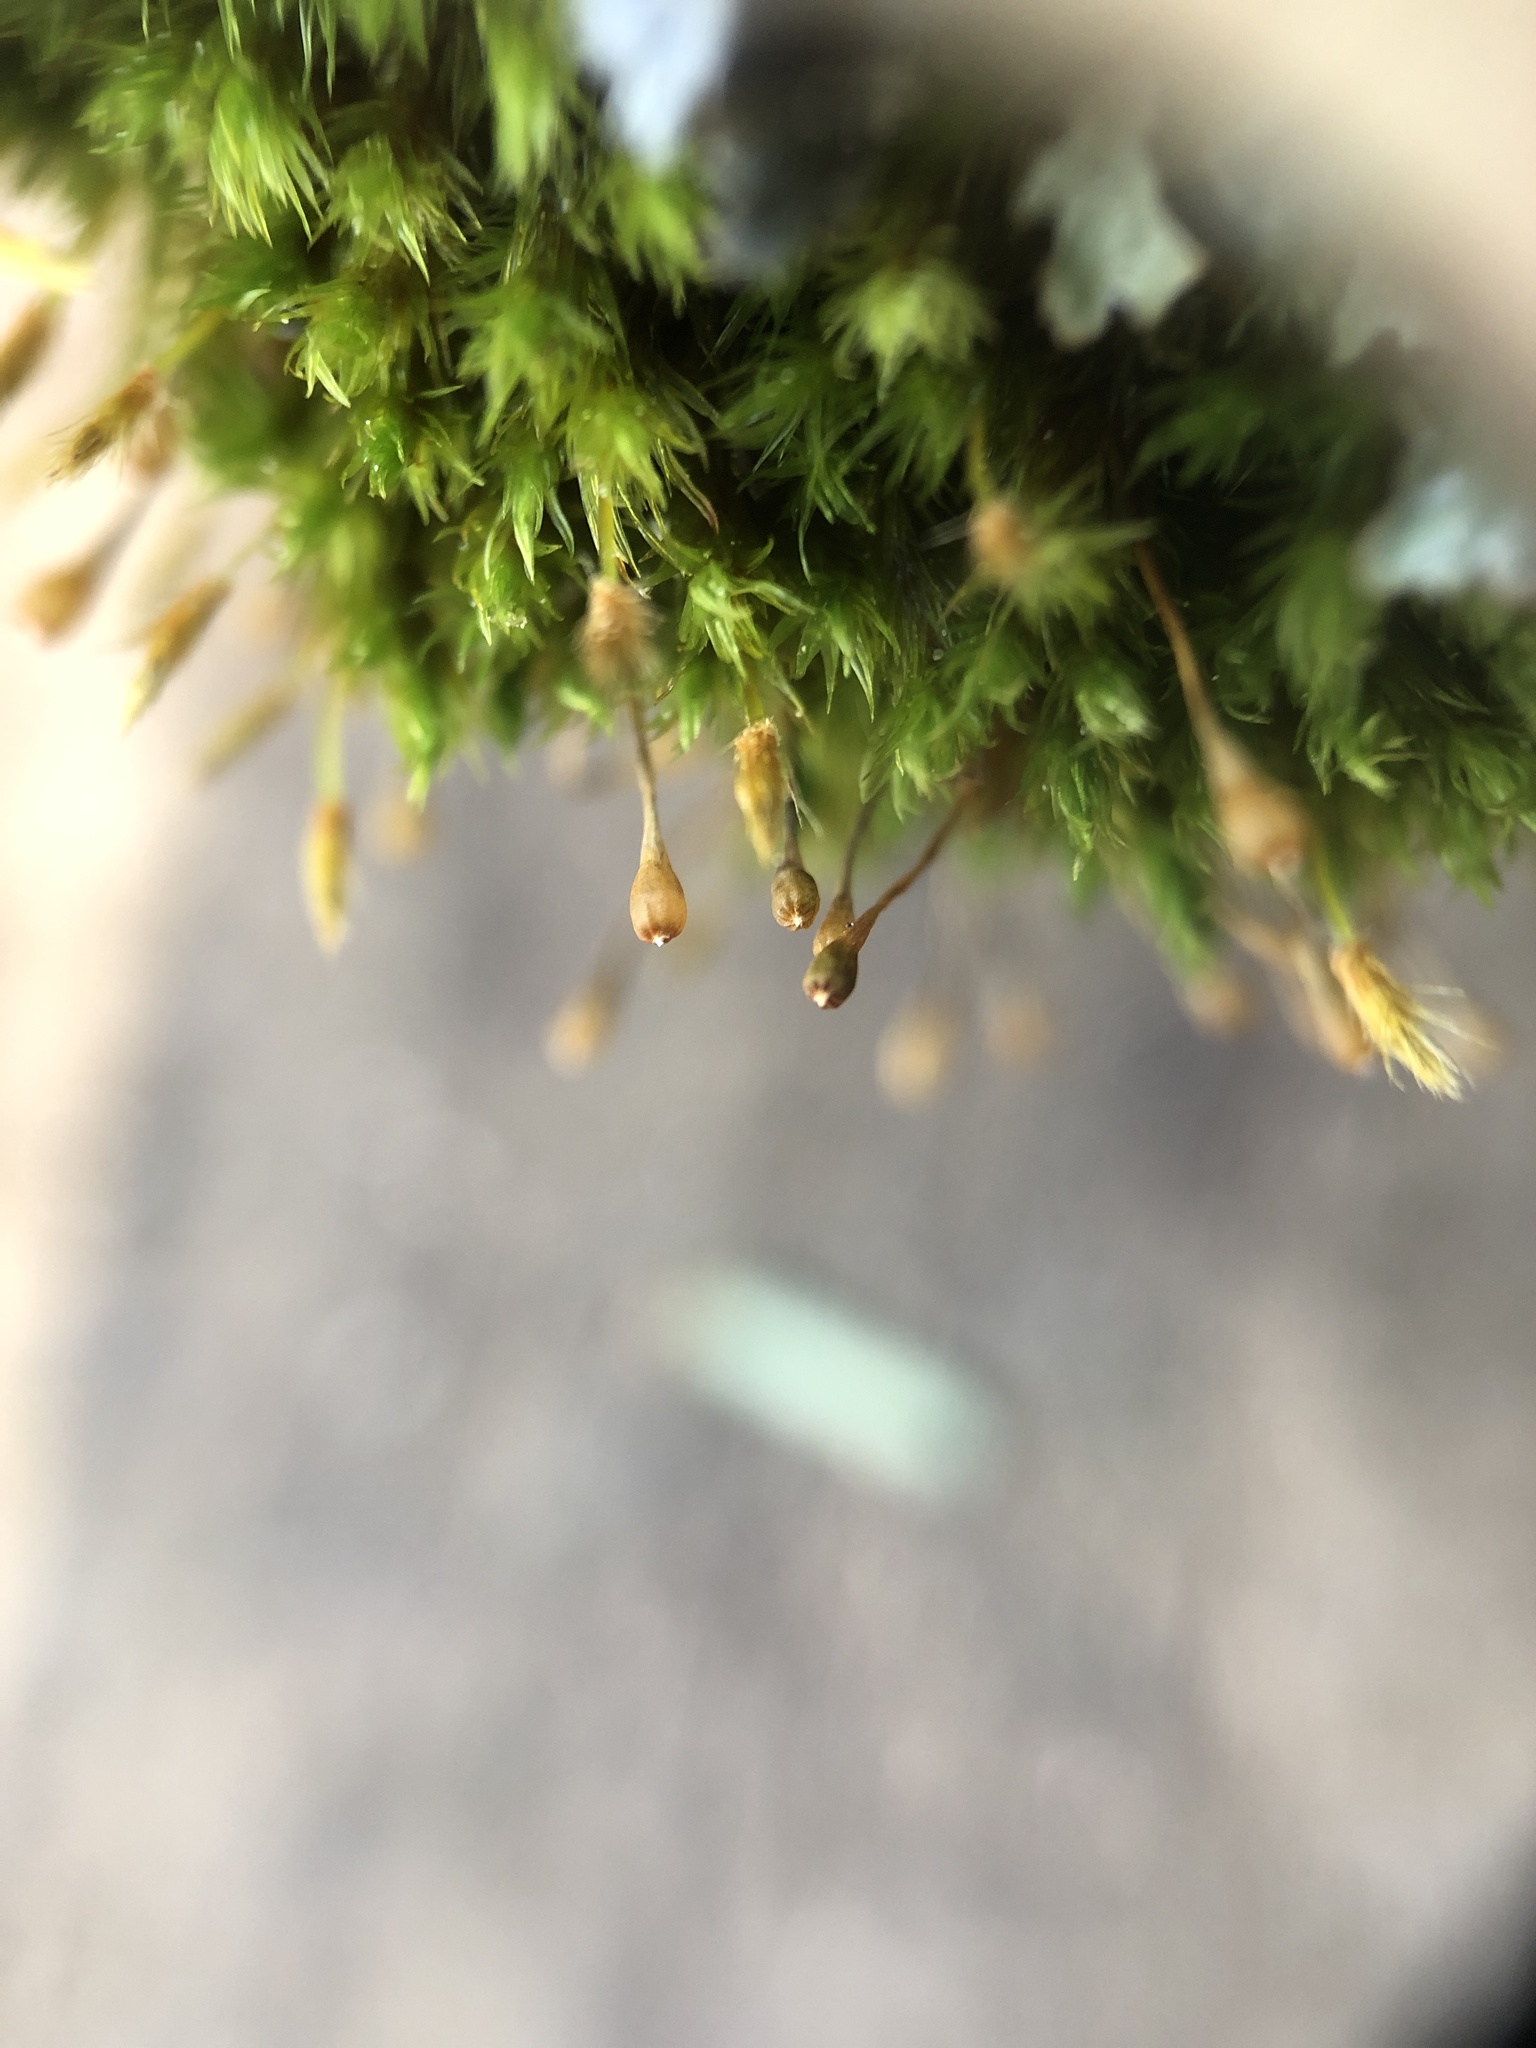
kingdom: Plantae
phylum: Bryophyta
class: Bryopsida
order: Orthotrichales
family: Orthotrichaceae
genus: Ulota
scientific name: Ulota crispa
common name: Crisped pincushion moss
